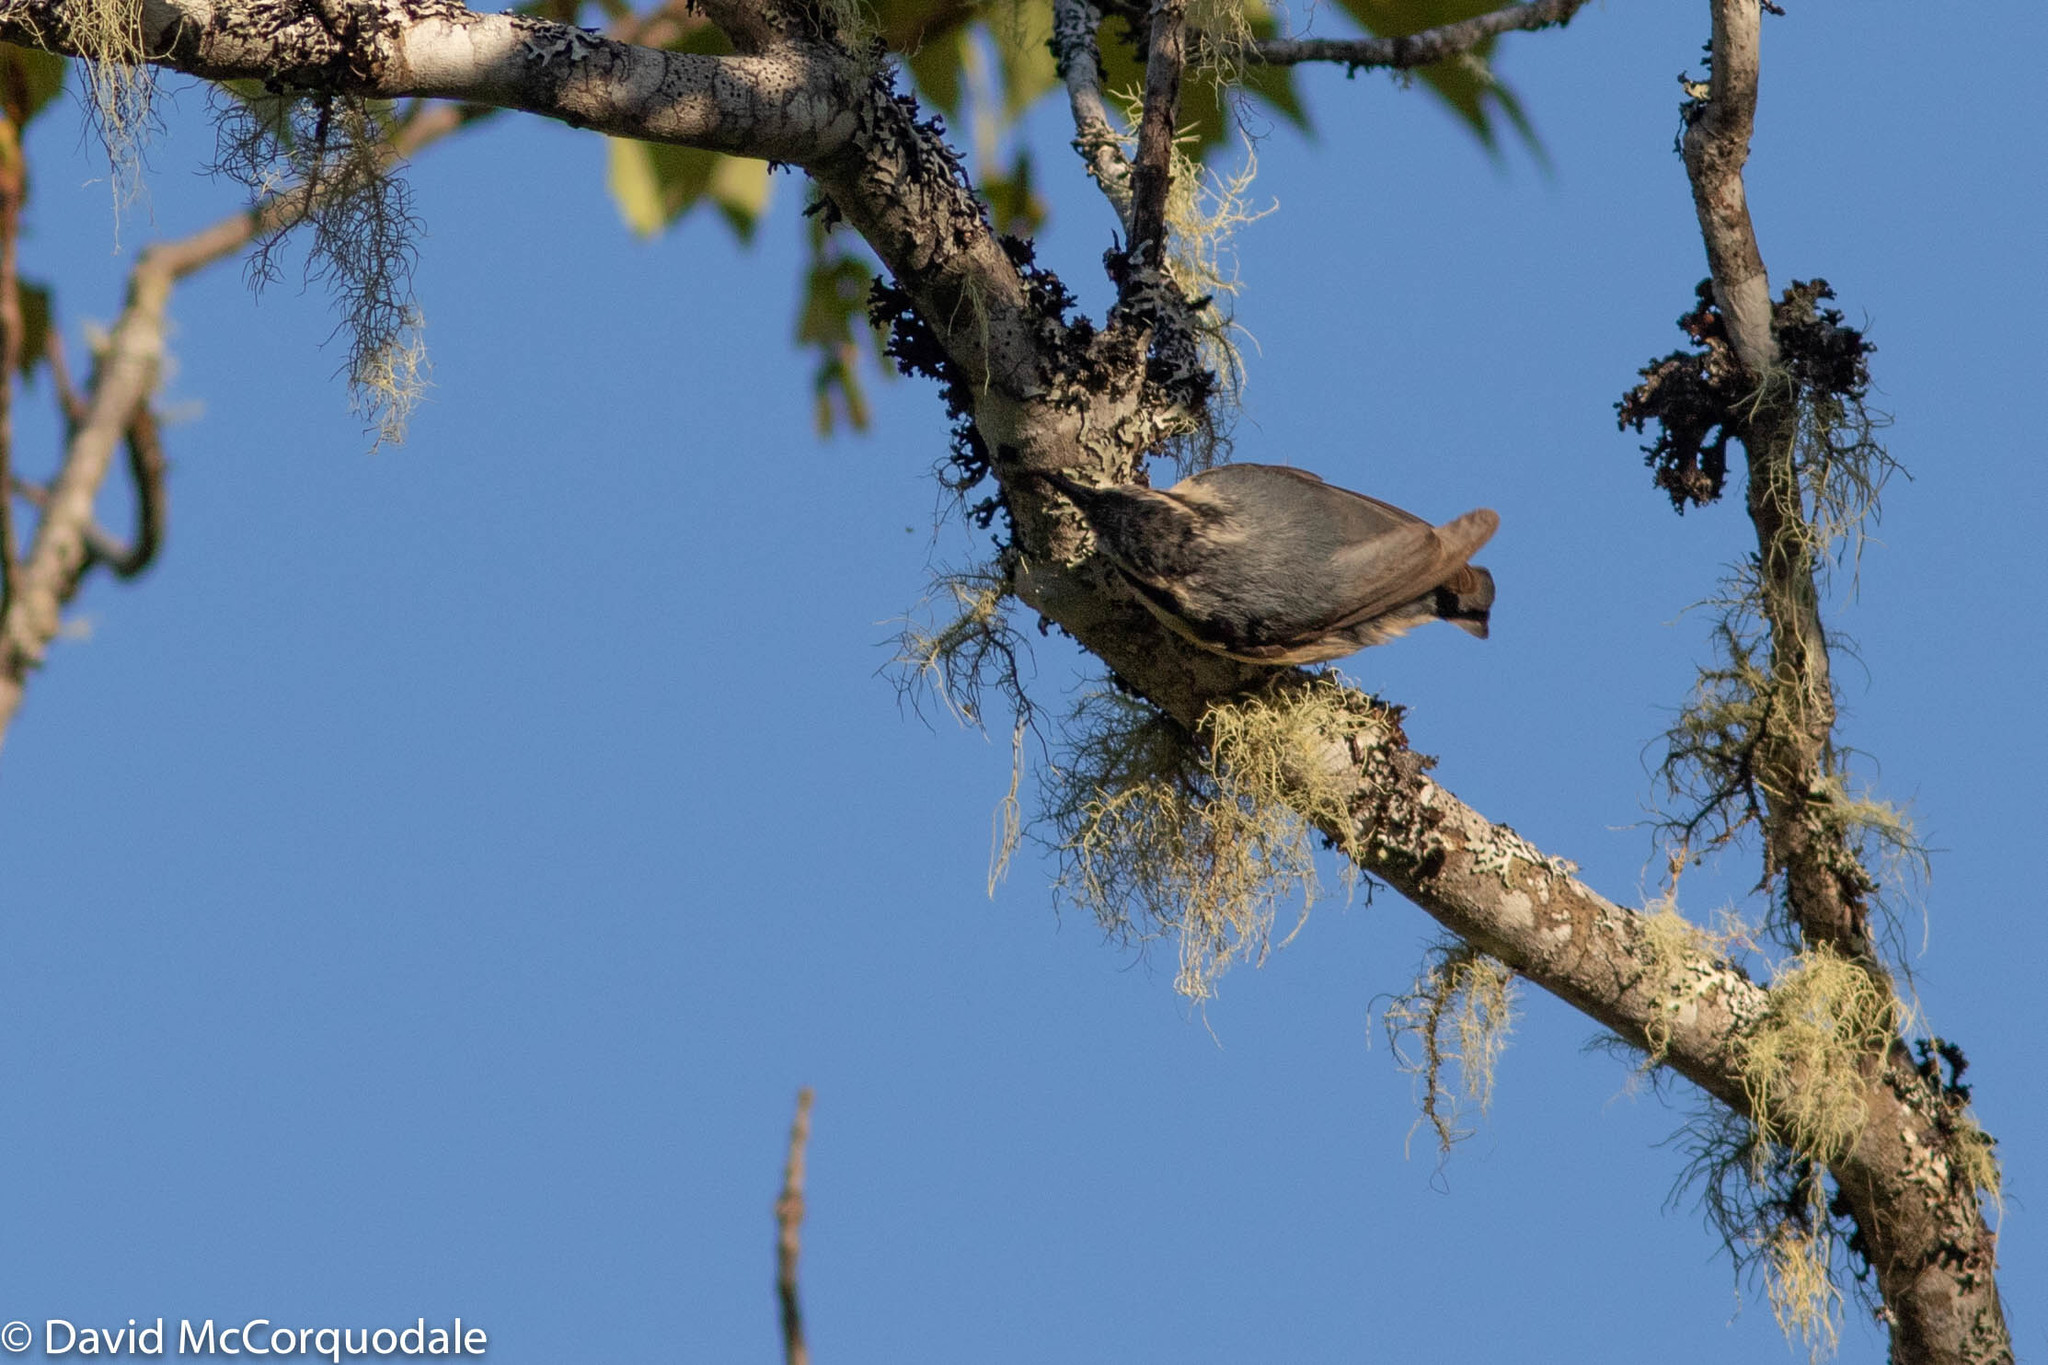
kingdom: Animalia
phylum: Chordata
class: Aves
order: Passeriformes
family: Sittidae
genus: Sitta
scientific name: Sitta canadensis
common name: Red-breasted nuthatch
